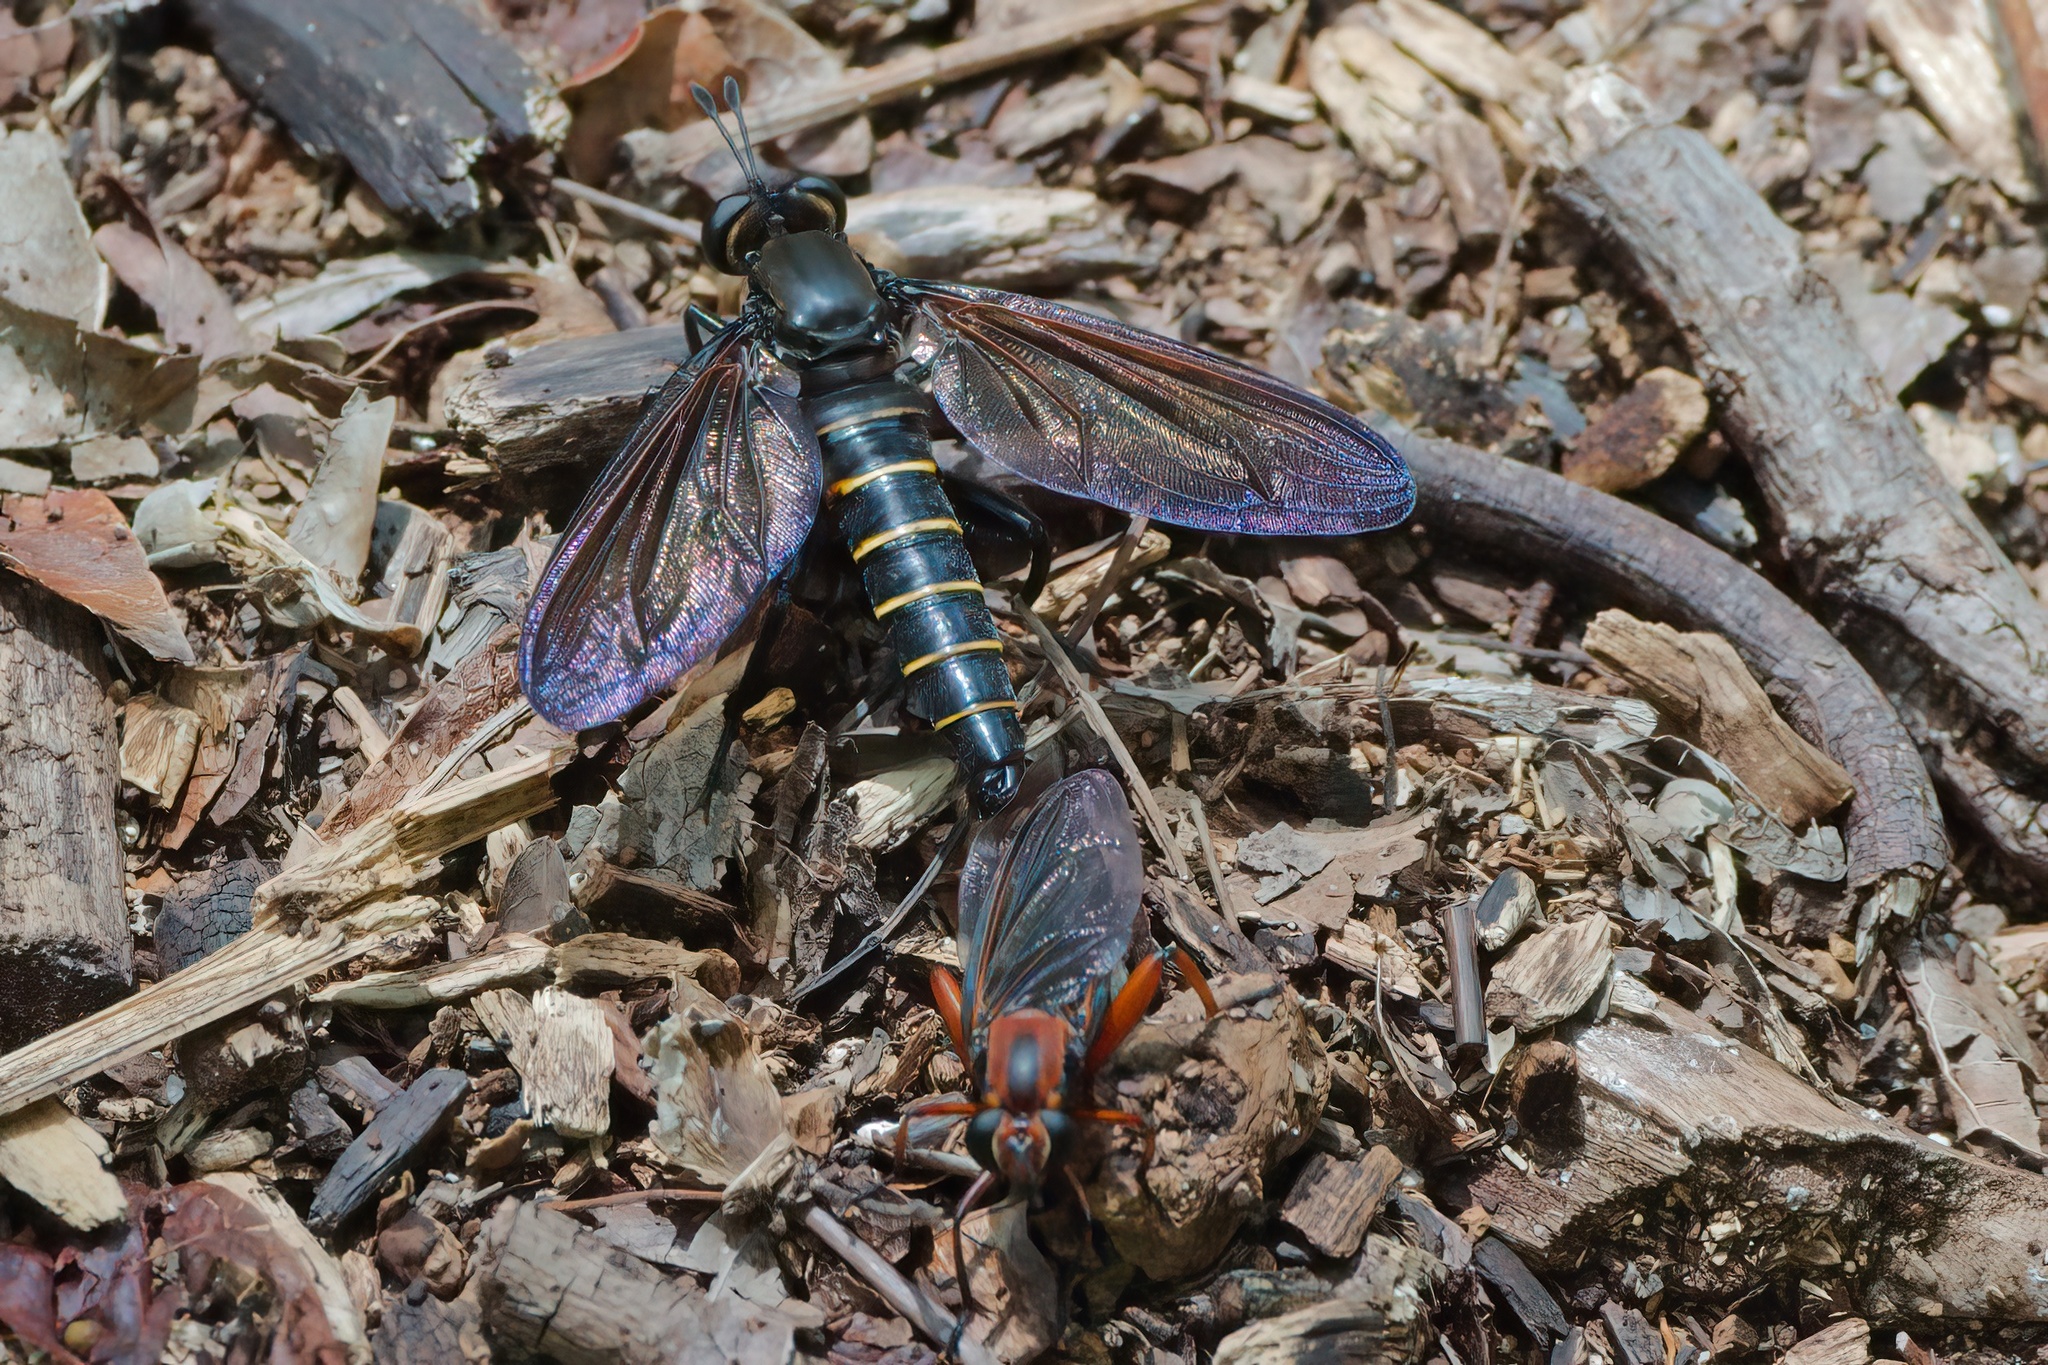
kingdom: Animalia
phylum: Arthropoda
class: Insecta
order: Diptera
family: Mydidae
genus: Mydas
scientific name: Mydas maculiventris
